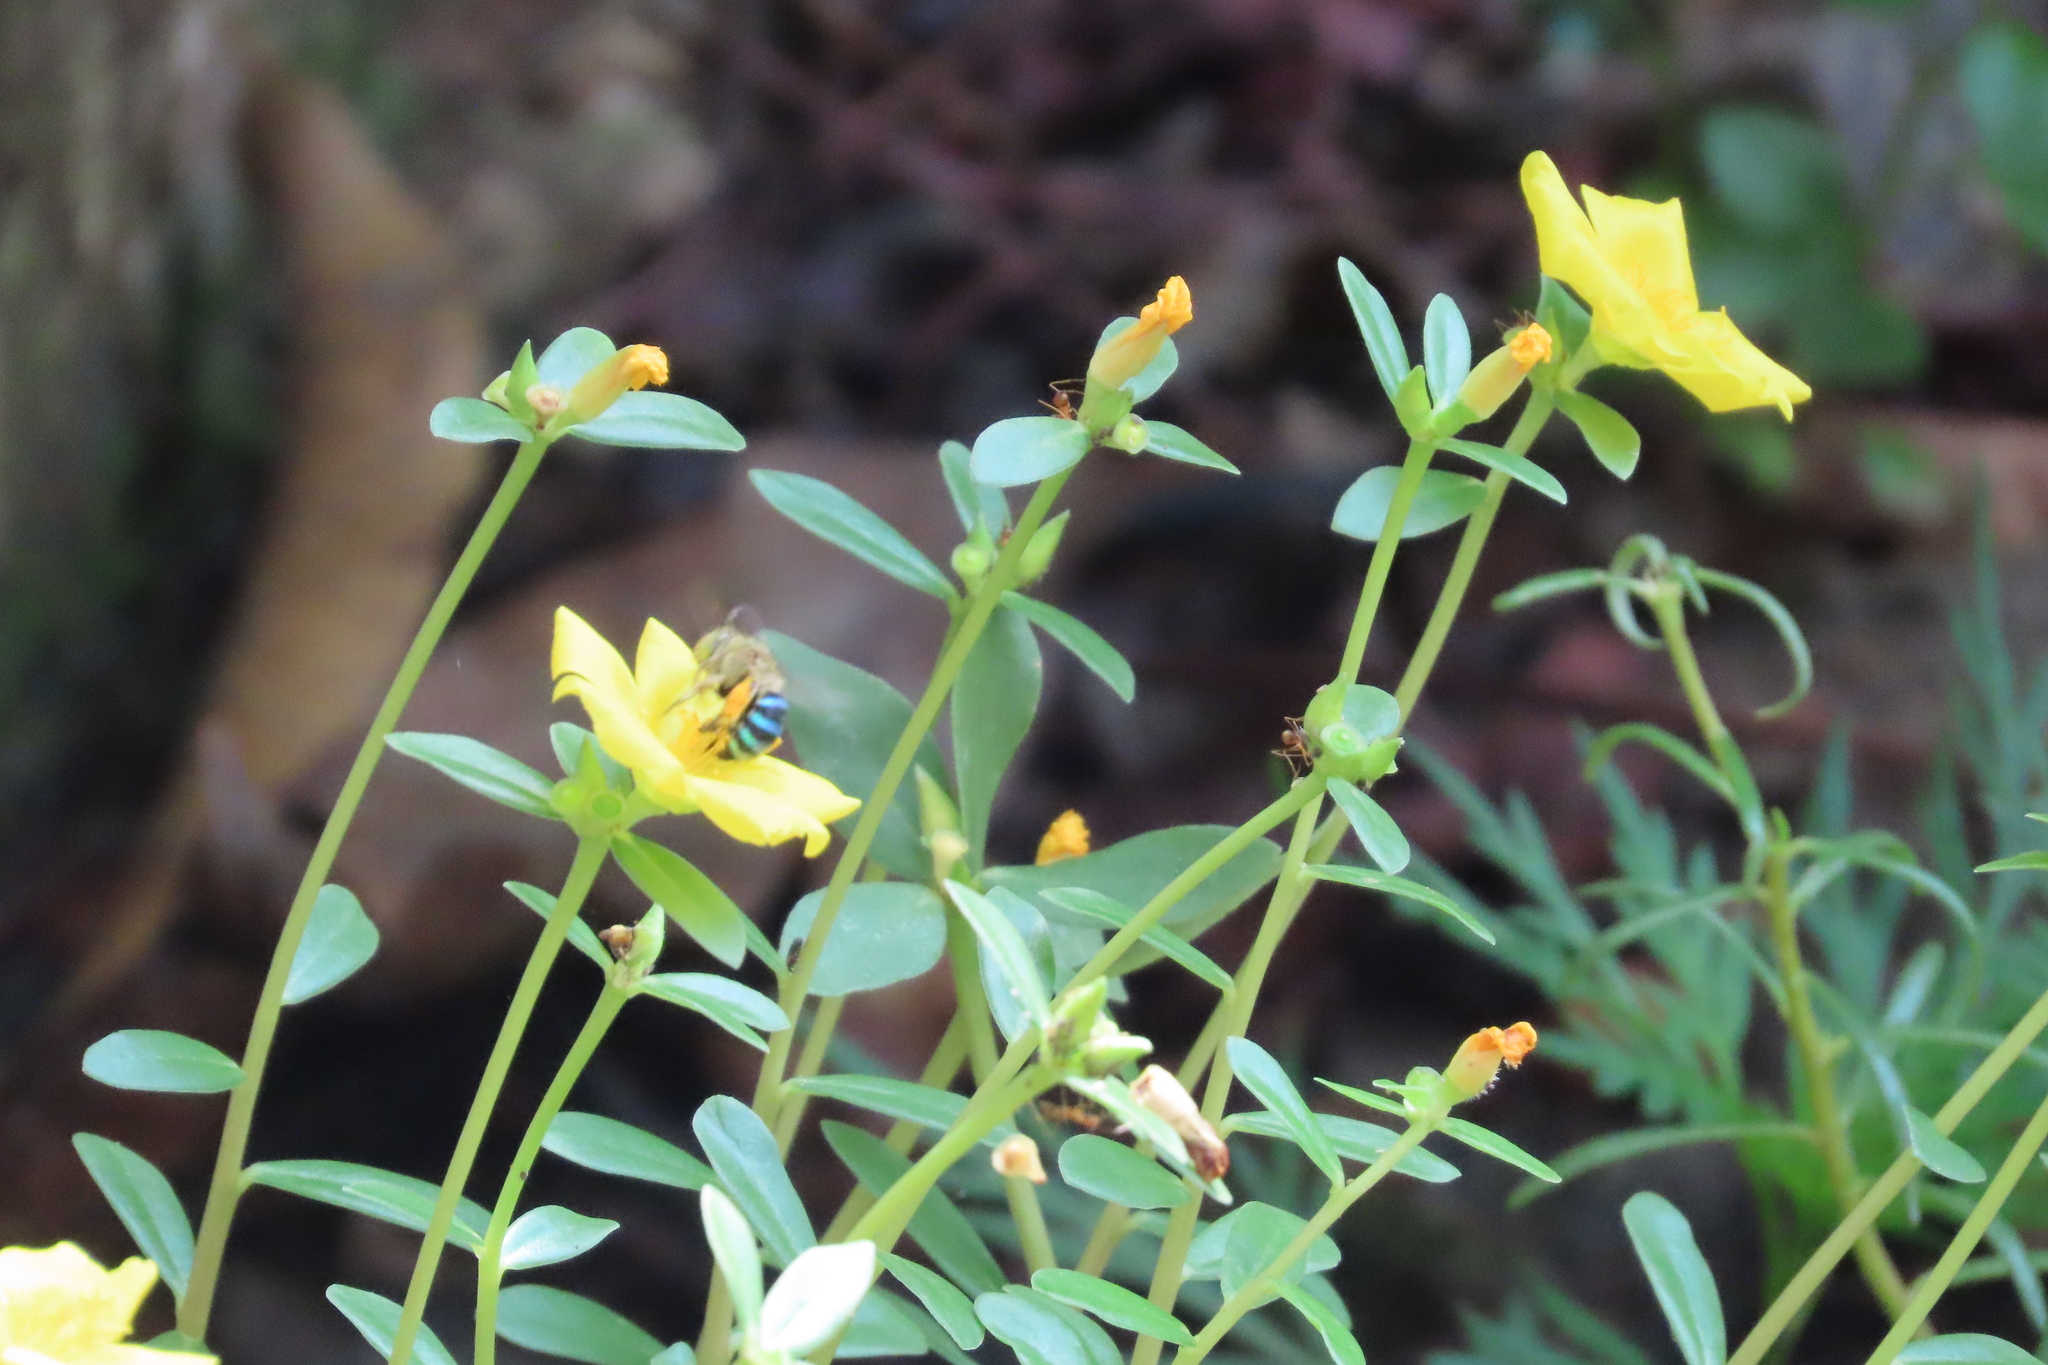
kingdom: Animalia
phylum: Arthropoda
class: Insecta
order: Hymenoptera
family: Formicidae
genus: Anoplolepis
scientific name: Anoplolepis gracilipes
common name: Ant
